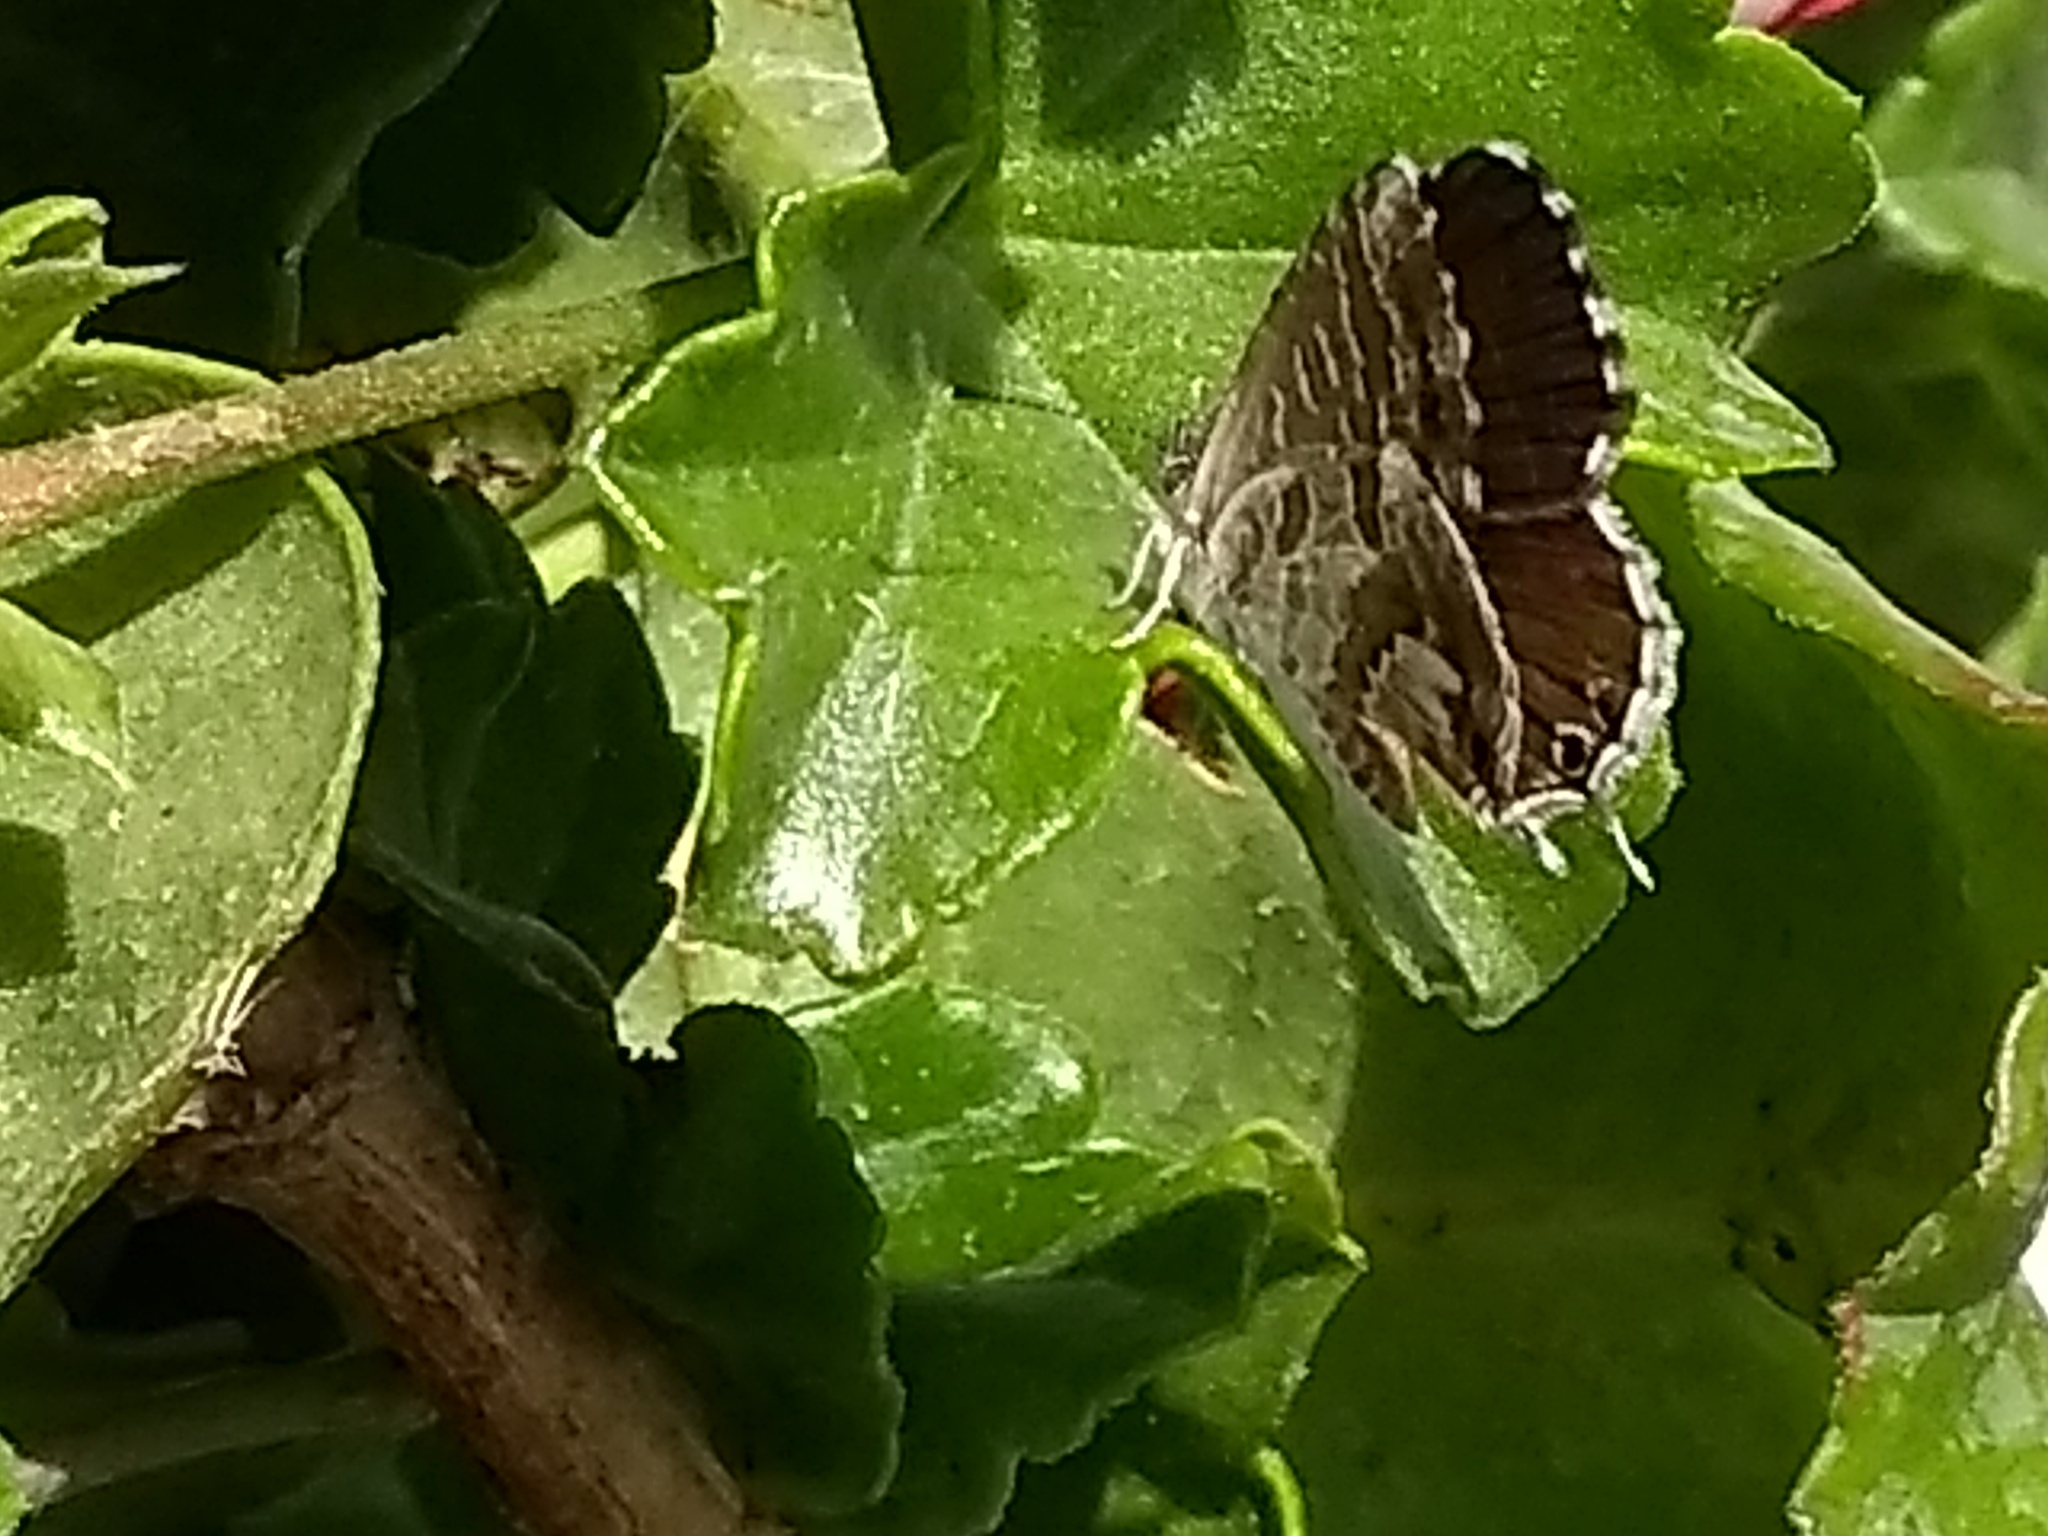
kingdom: Animalia
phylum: Arthropoda
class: Insecta
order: Lepidoptera
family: Lycaenidae
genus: Cacyreus
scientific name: Cacyreus marshalli
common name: Geranium bronze
